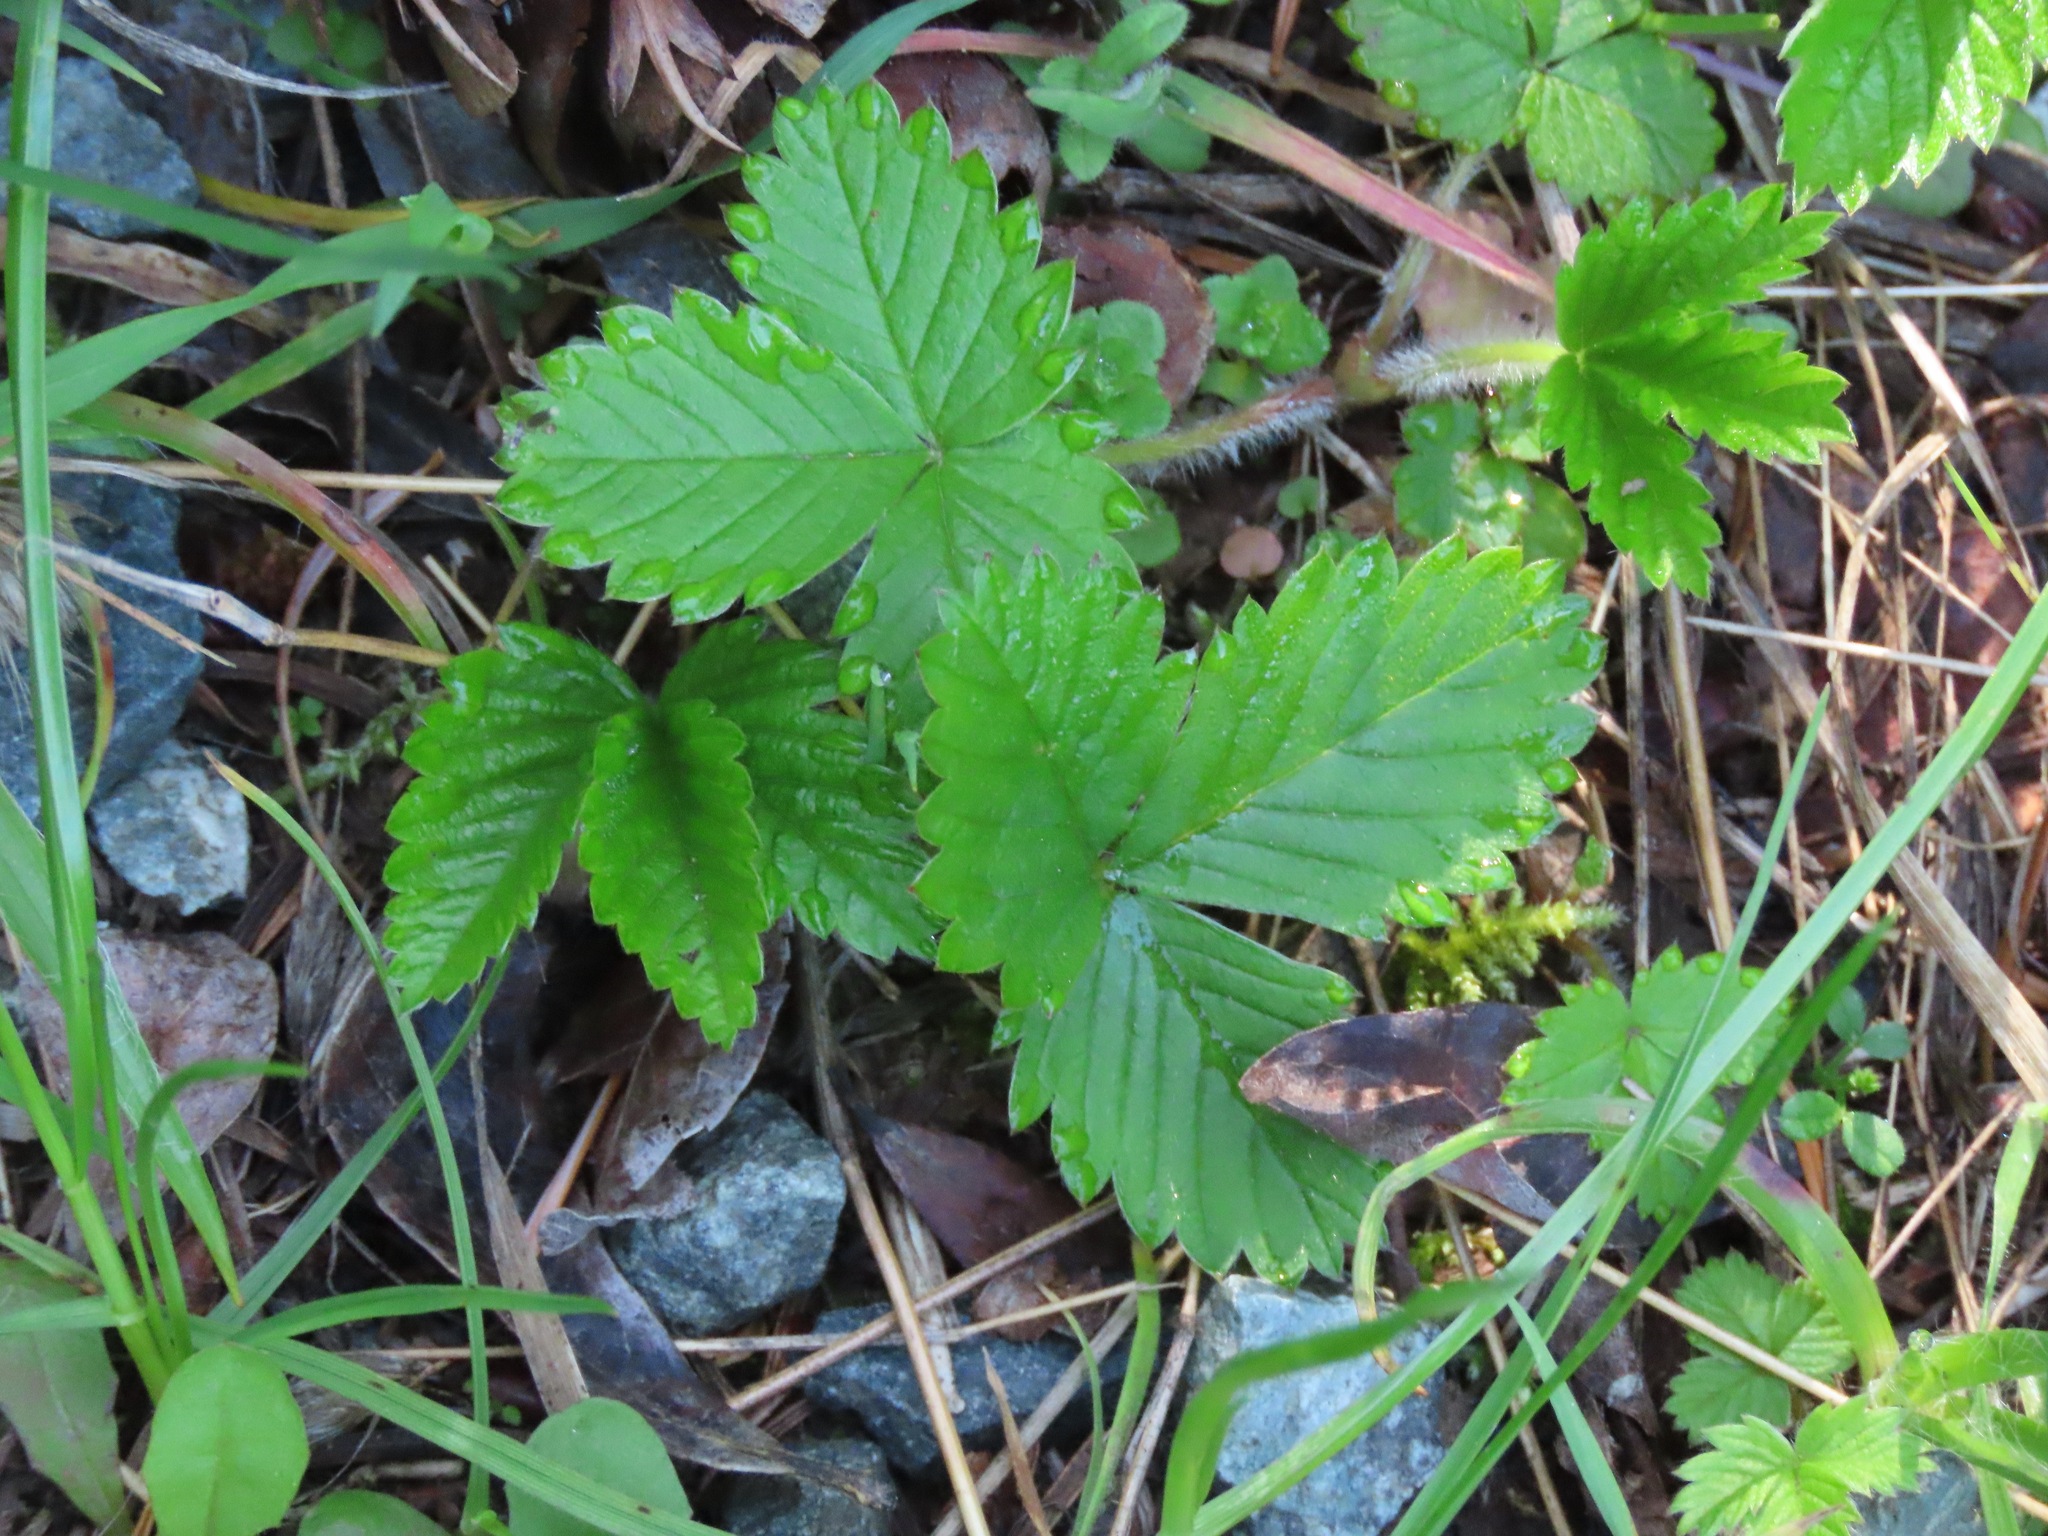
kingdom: Plantae
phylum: Tracheophyta
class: Magnoliopsida
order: Rosales
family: Rosaceae
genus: Fragaria
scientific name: Fragaria vesca
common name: Wild strawberry
